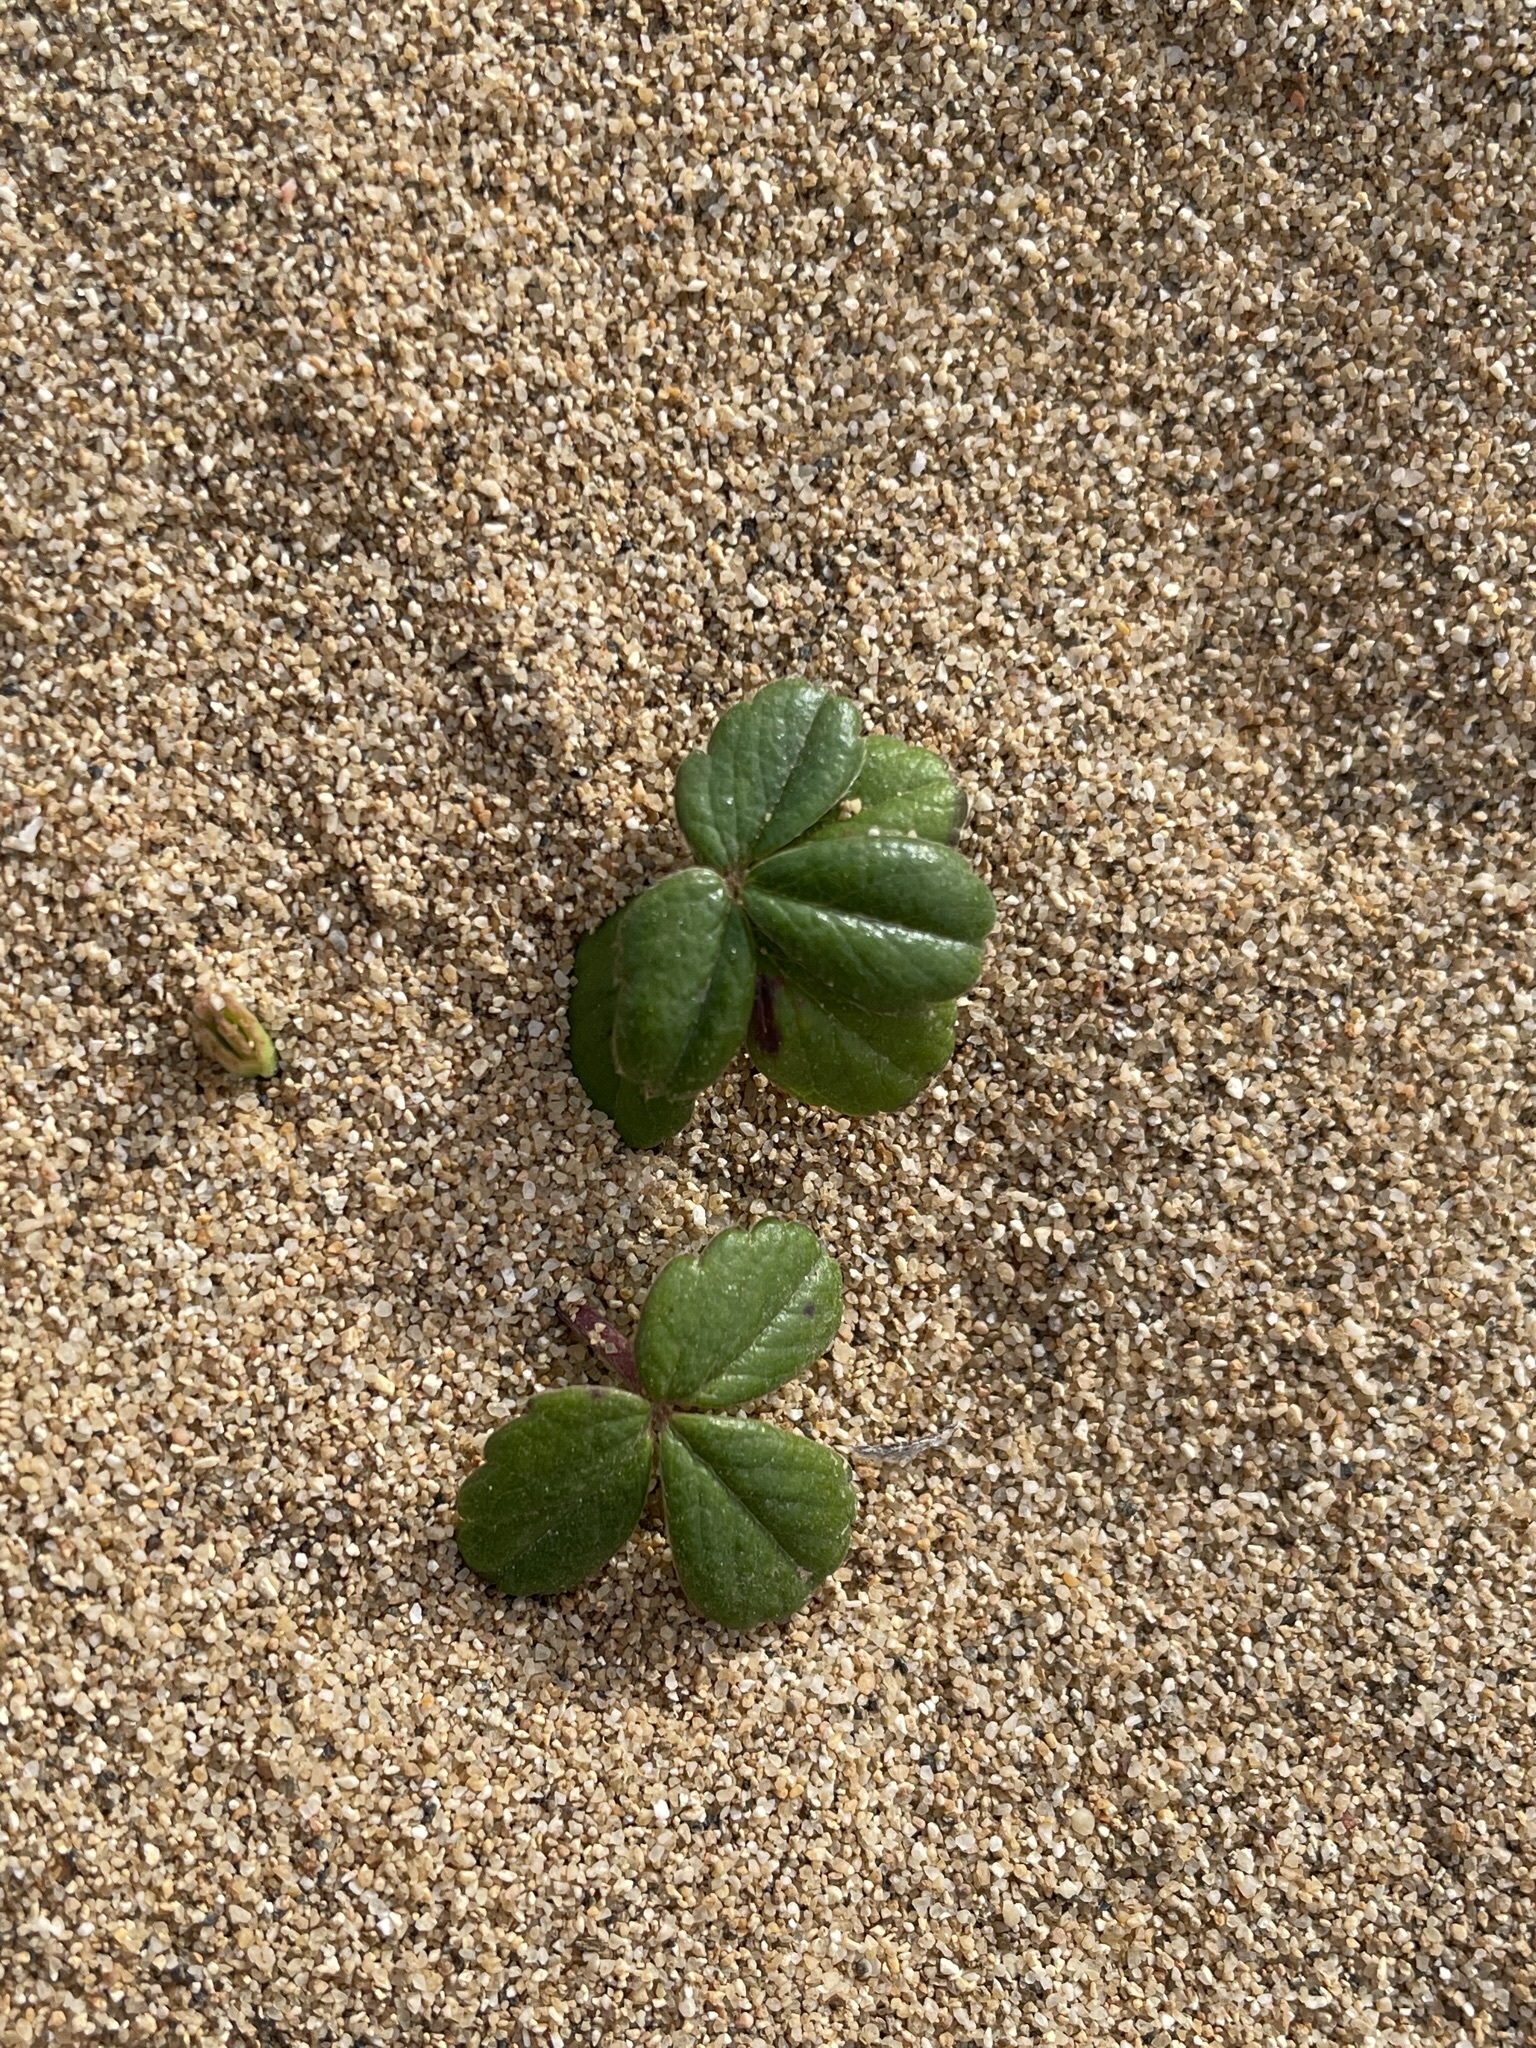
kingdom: Plantae
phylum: Tracheophyta
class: Magnoliopsida
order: Rosales
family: Rosaceae
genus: Fragaria
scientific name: Fragaria chiloensis
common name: Beach strawberry
